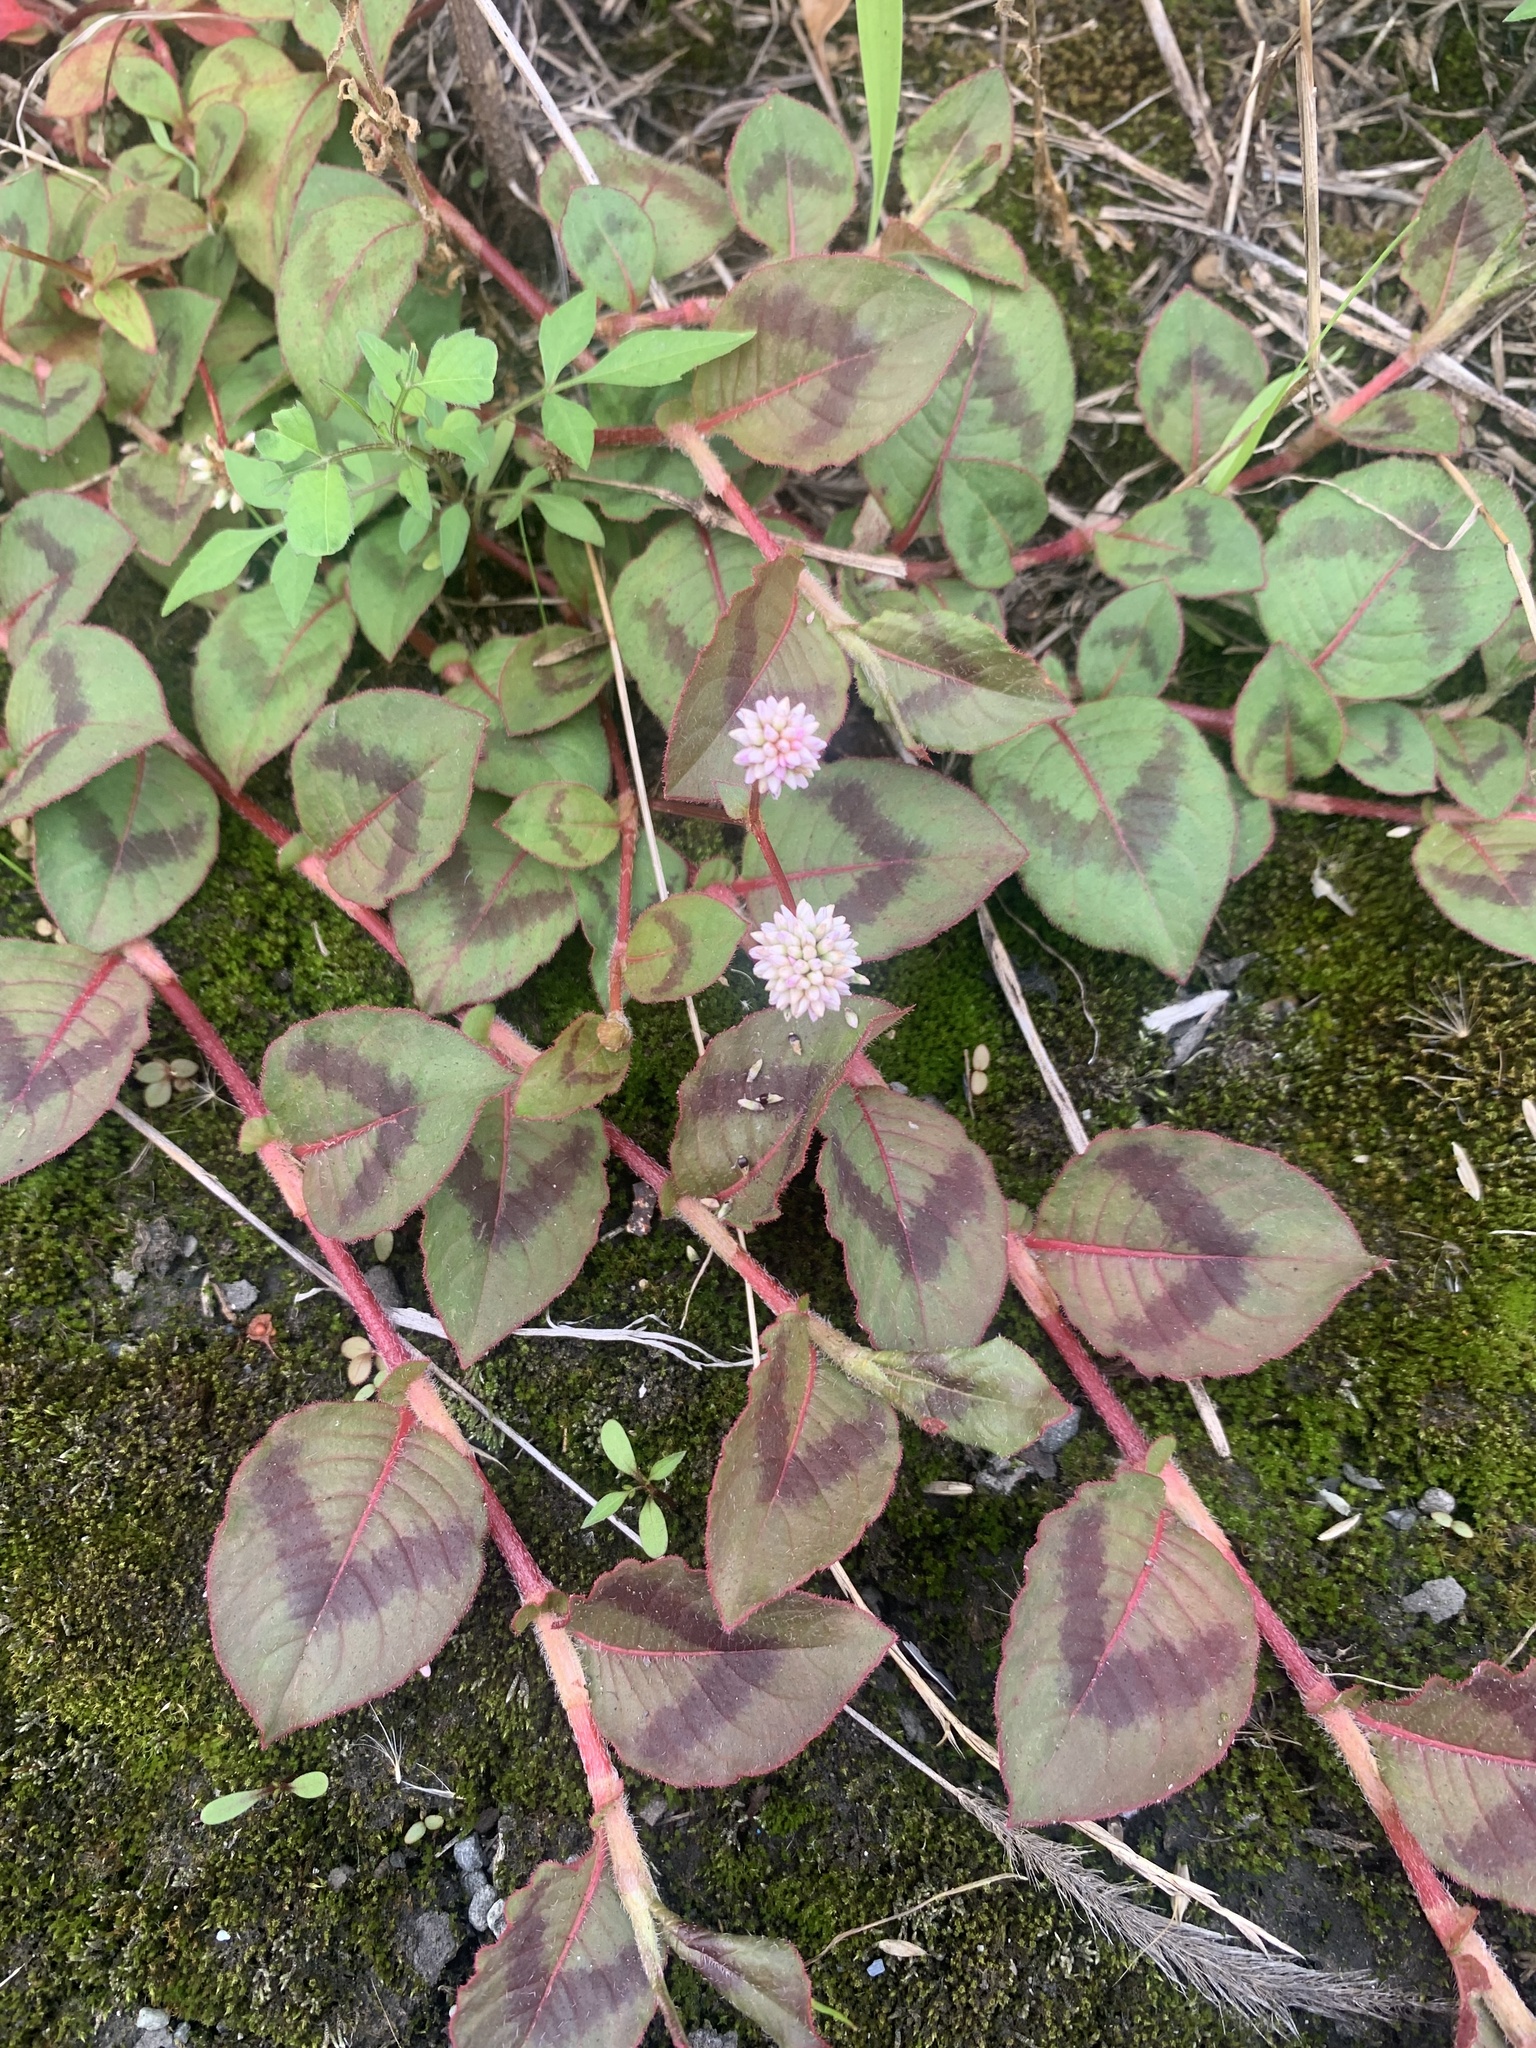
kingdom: Plantae
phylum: Tracheophyta
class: Magnoliopsida
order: Caryophyllales
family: Polygonaceae
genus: Persicaria
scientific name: Persicaria capitata
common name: Pinkhead smartweed
